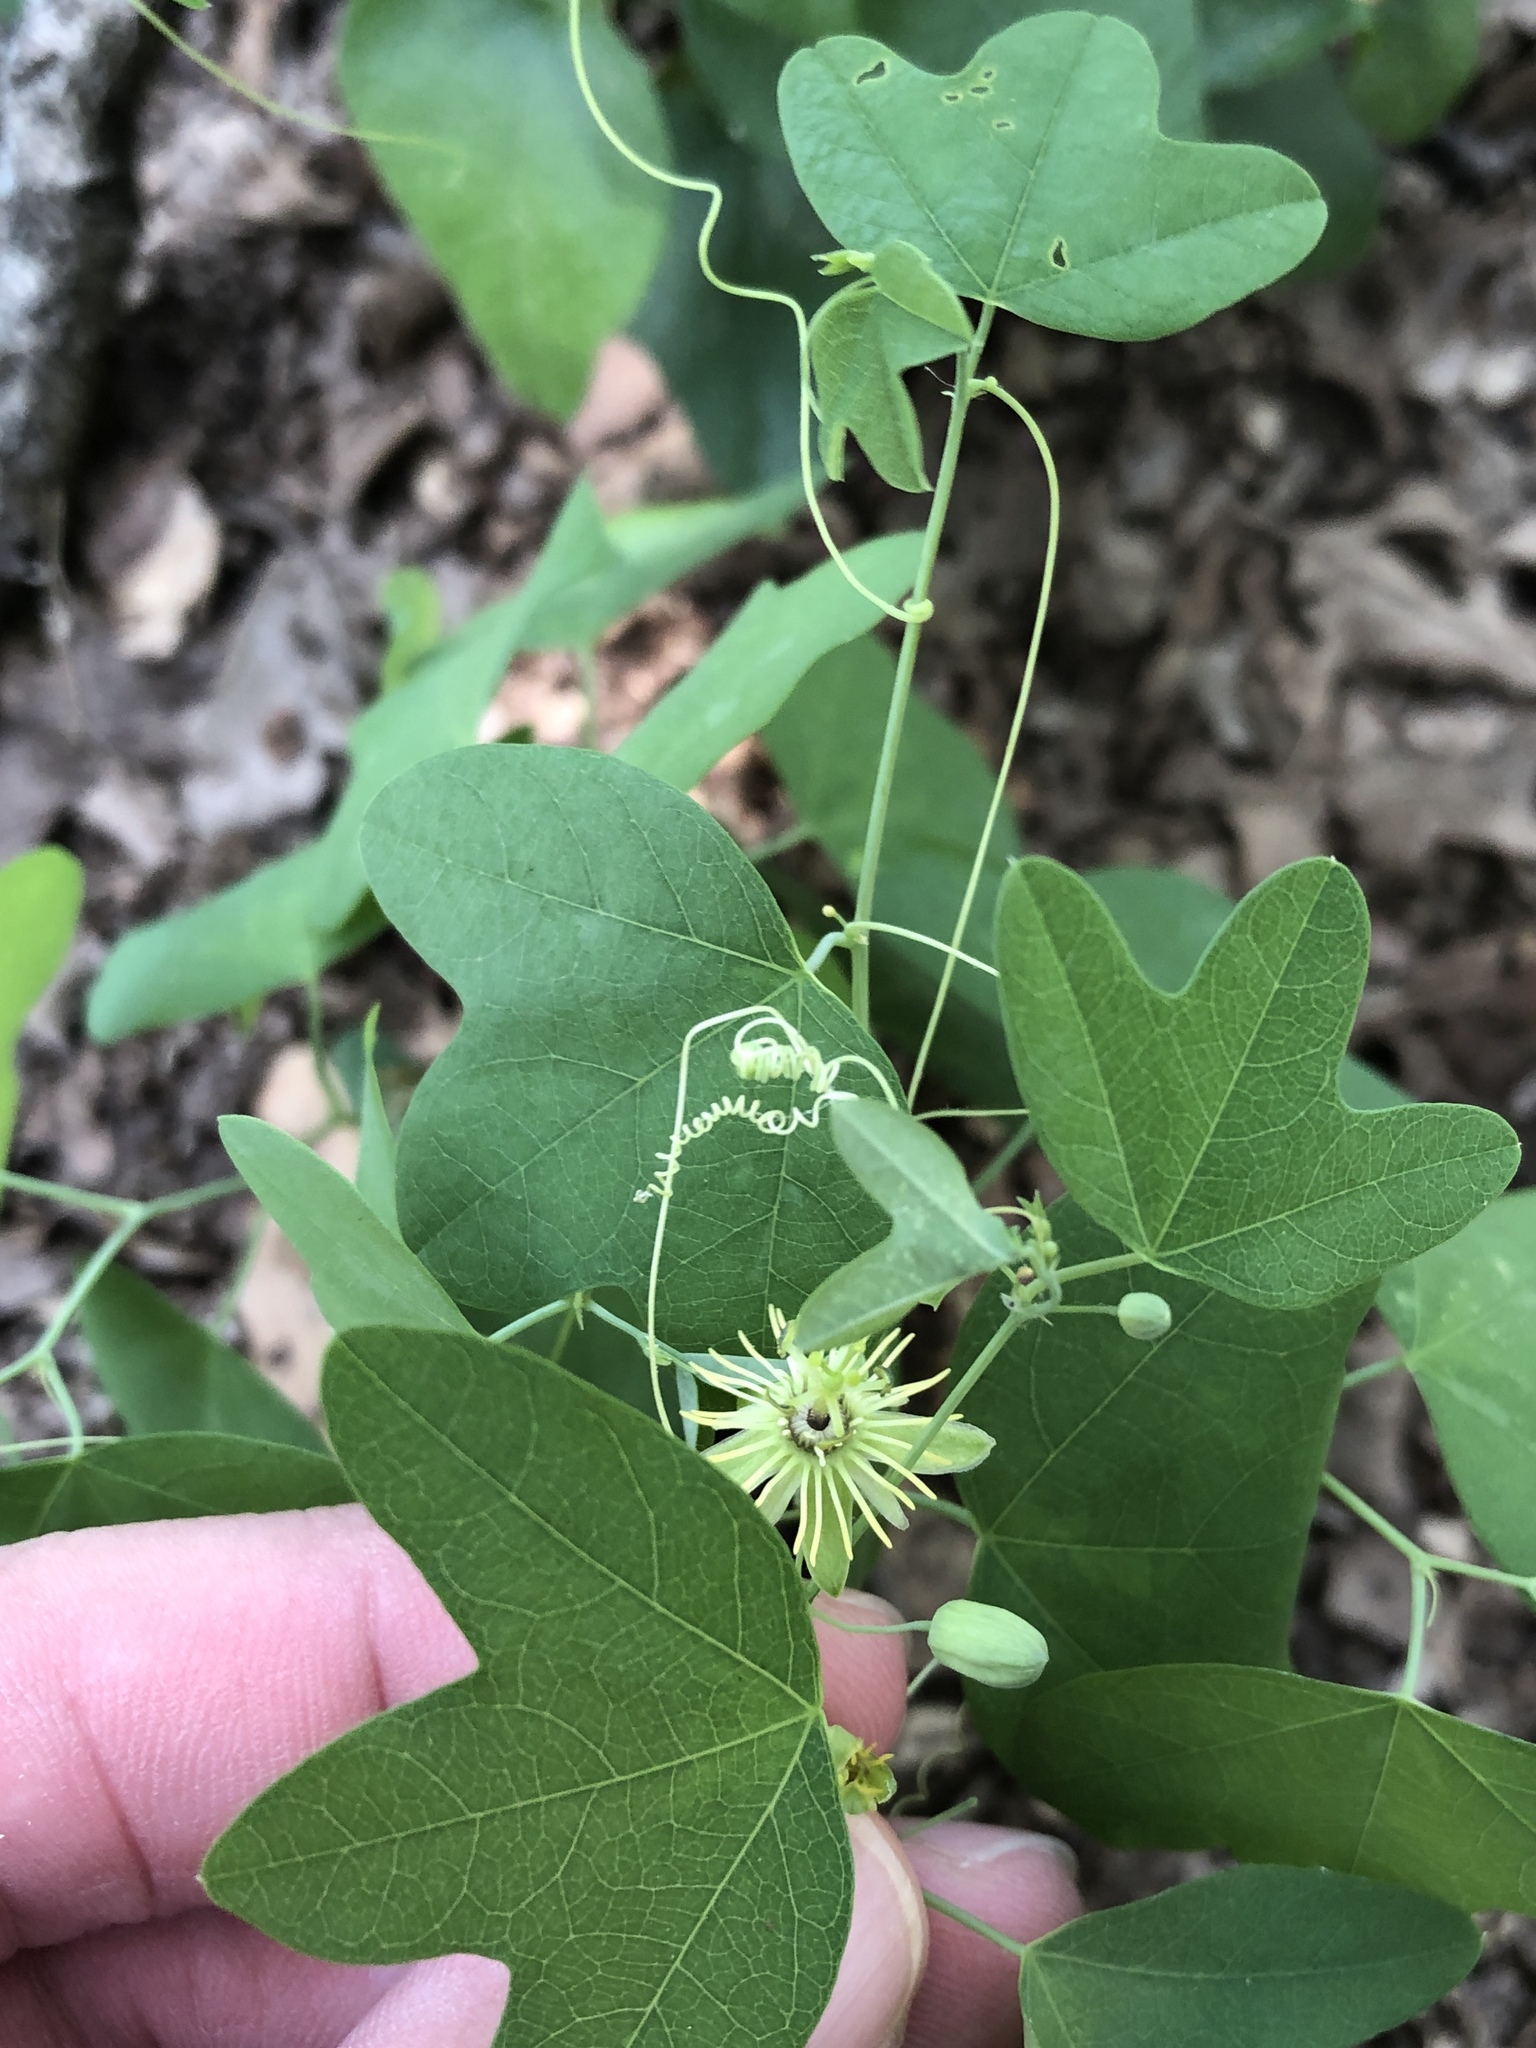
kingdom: Plantae
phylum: Tracheophyta
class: Magnoliopsida
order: Malpighiales
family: Passifloraceae
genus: Passiflora
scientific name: Passiflora lutea
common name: Yellow passionflower
